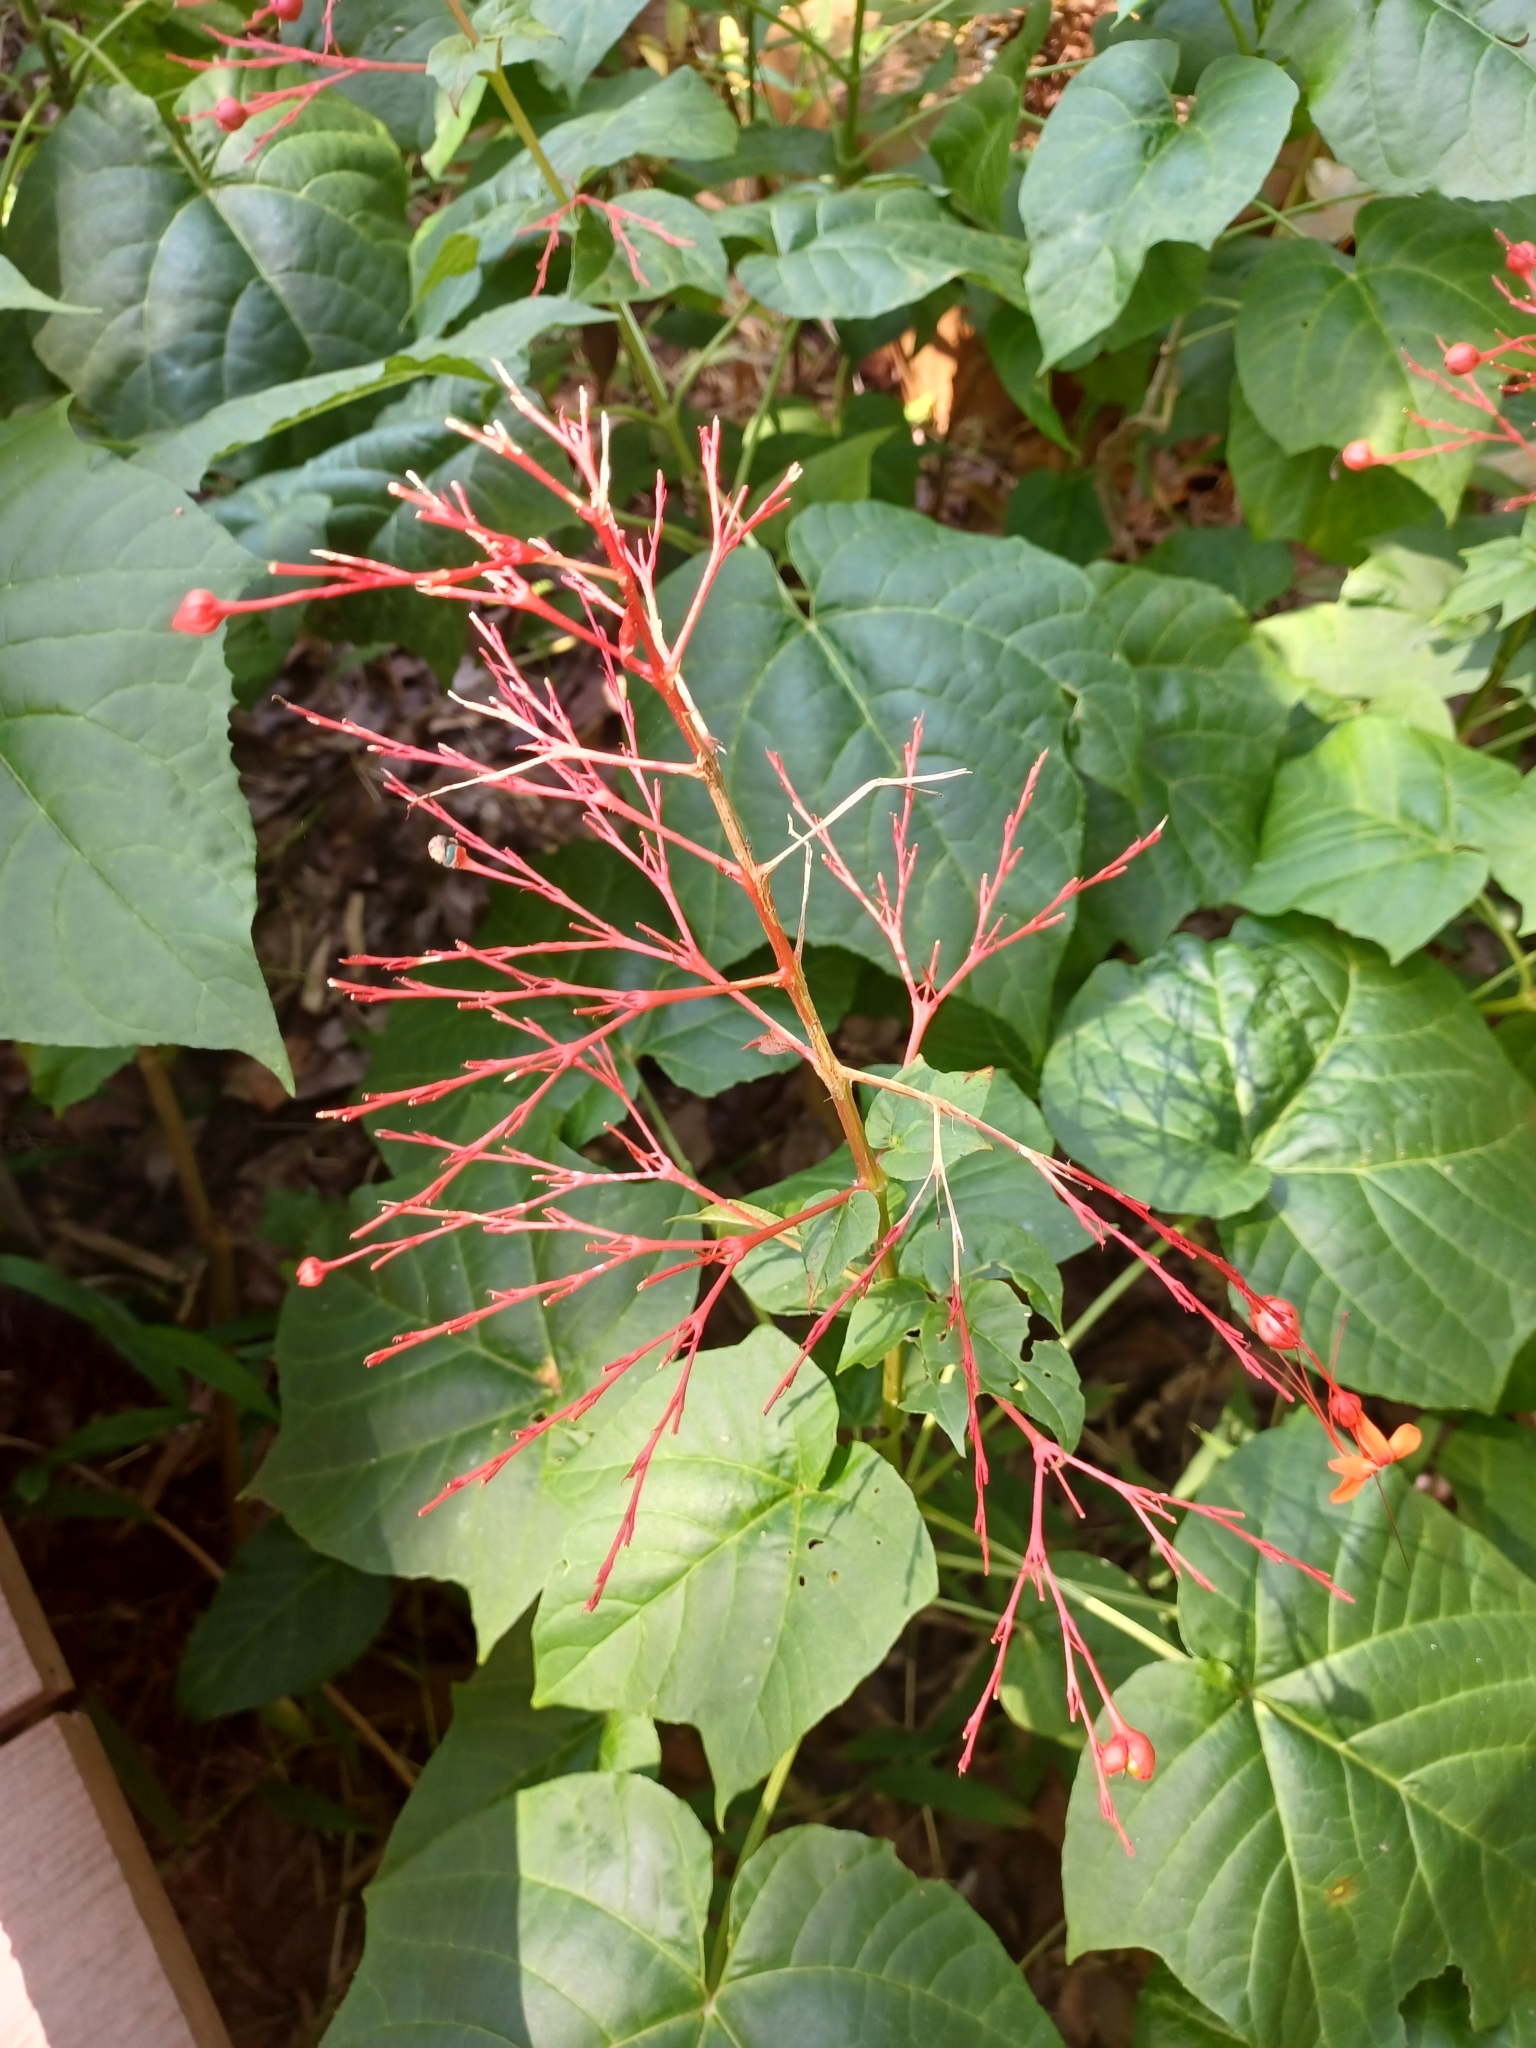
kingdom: Plantae
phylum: Tracheophyta
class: Magnoliopsida
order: Lamiales
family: Lamiaceae
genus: Clerodendrum
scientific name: Clerodendrum japonicum
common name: Japanese glorybower
